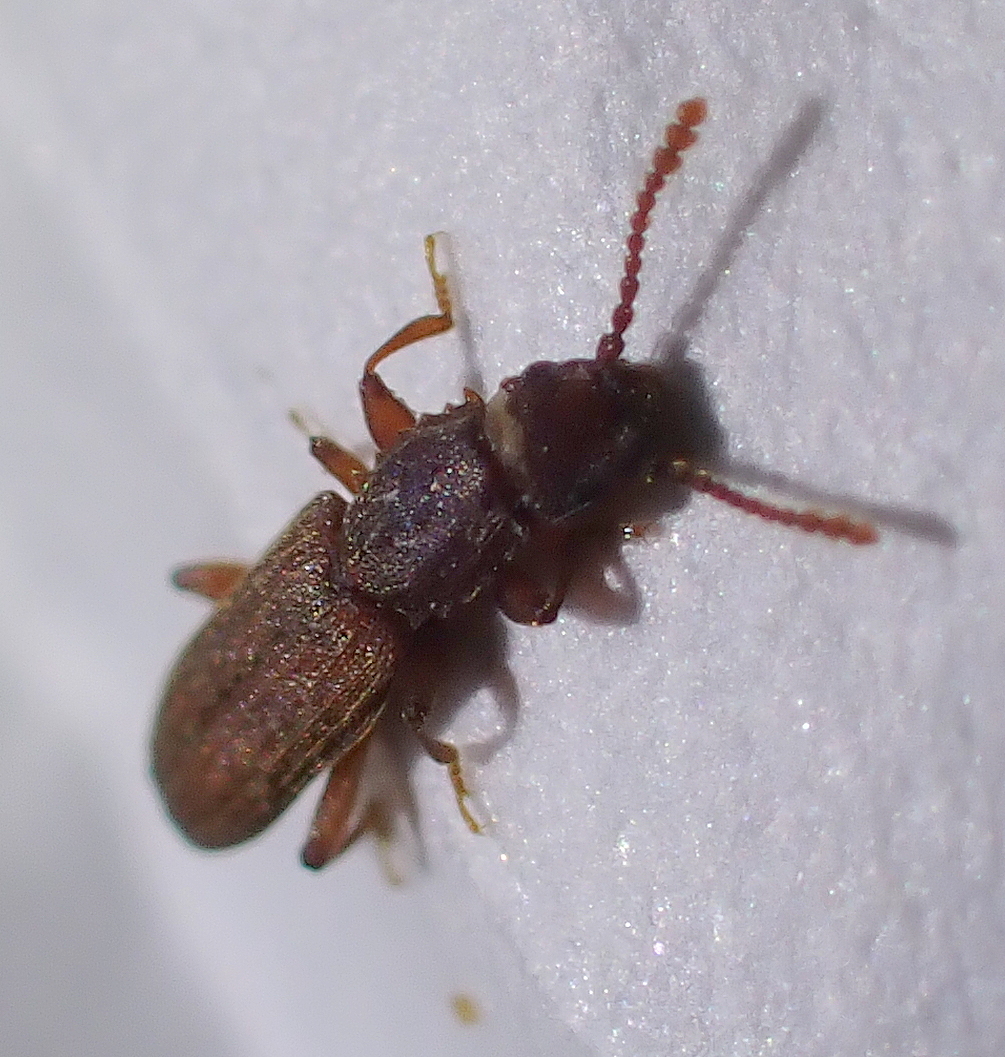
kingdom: Animalia
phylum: Arthropoda
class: Insecta
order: Coleoptera
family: Silvanidae
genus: Oryzaephilus
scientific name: Oryzaephilus surinamensis
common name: Sawtoothed grain beetle
